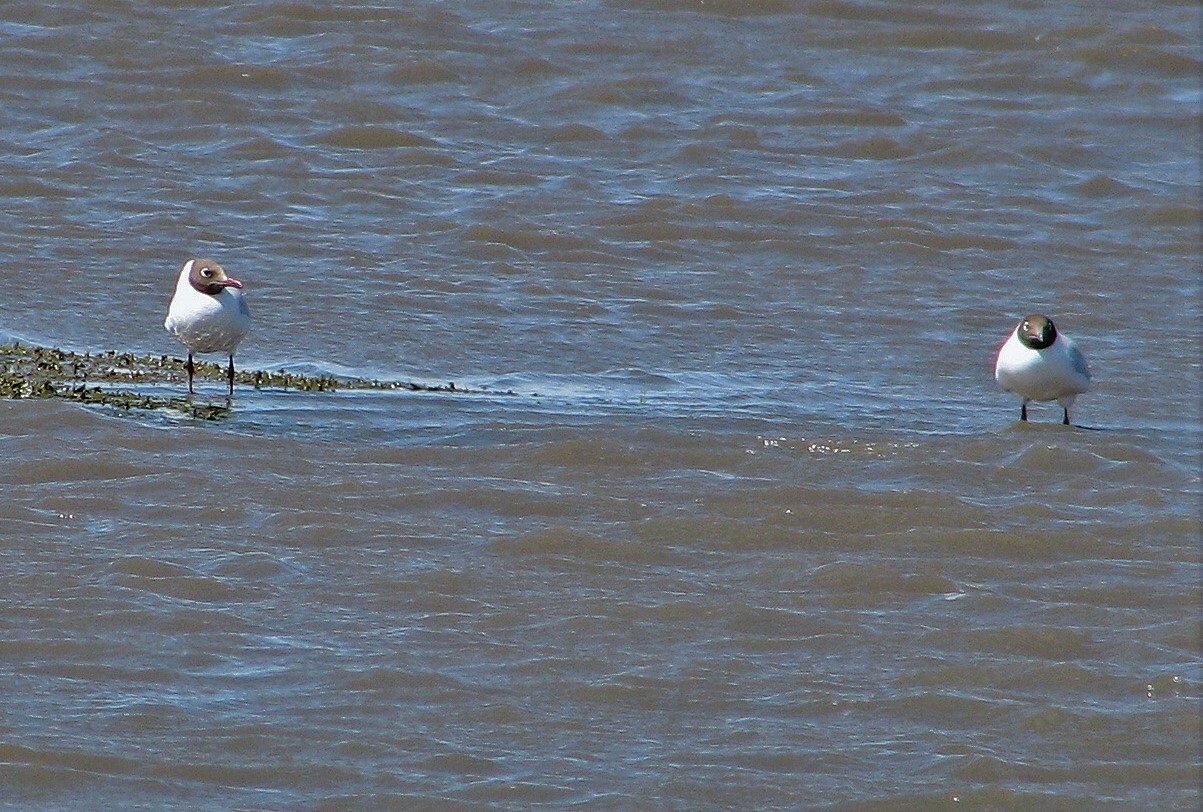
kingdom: Animalia
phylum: Chordata
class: Aves
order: Charadriiformes
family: Laridae
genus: Chroicocephalus
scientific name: Chroicocephalus maculipennis
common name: Brown-hooded gull
